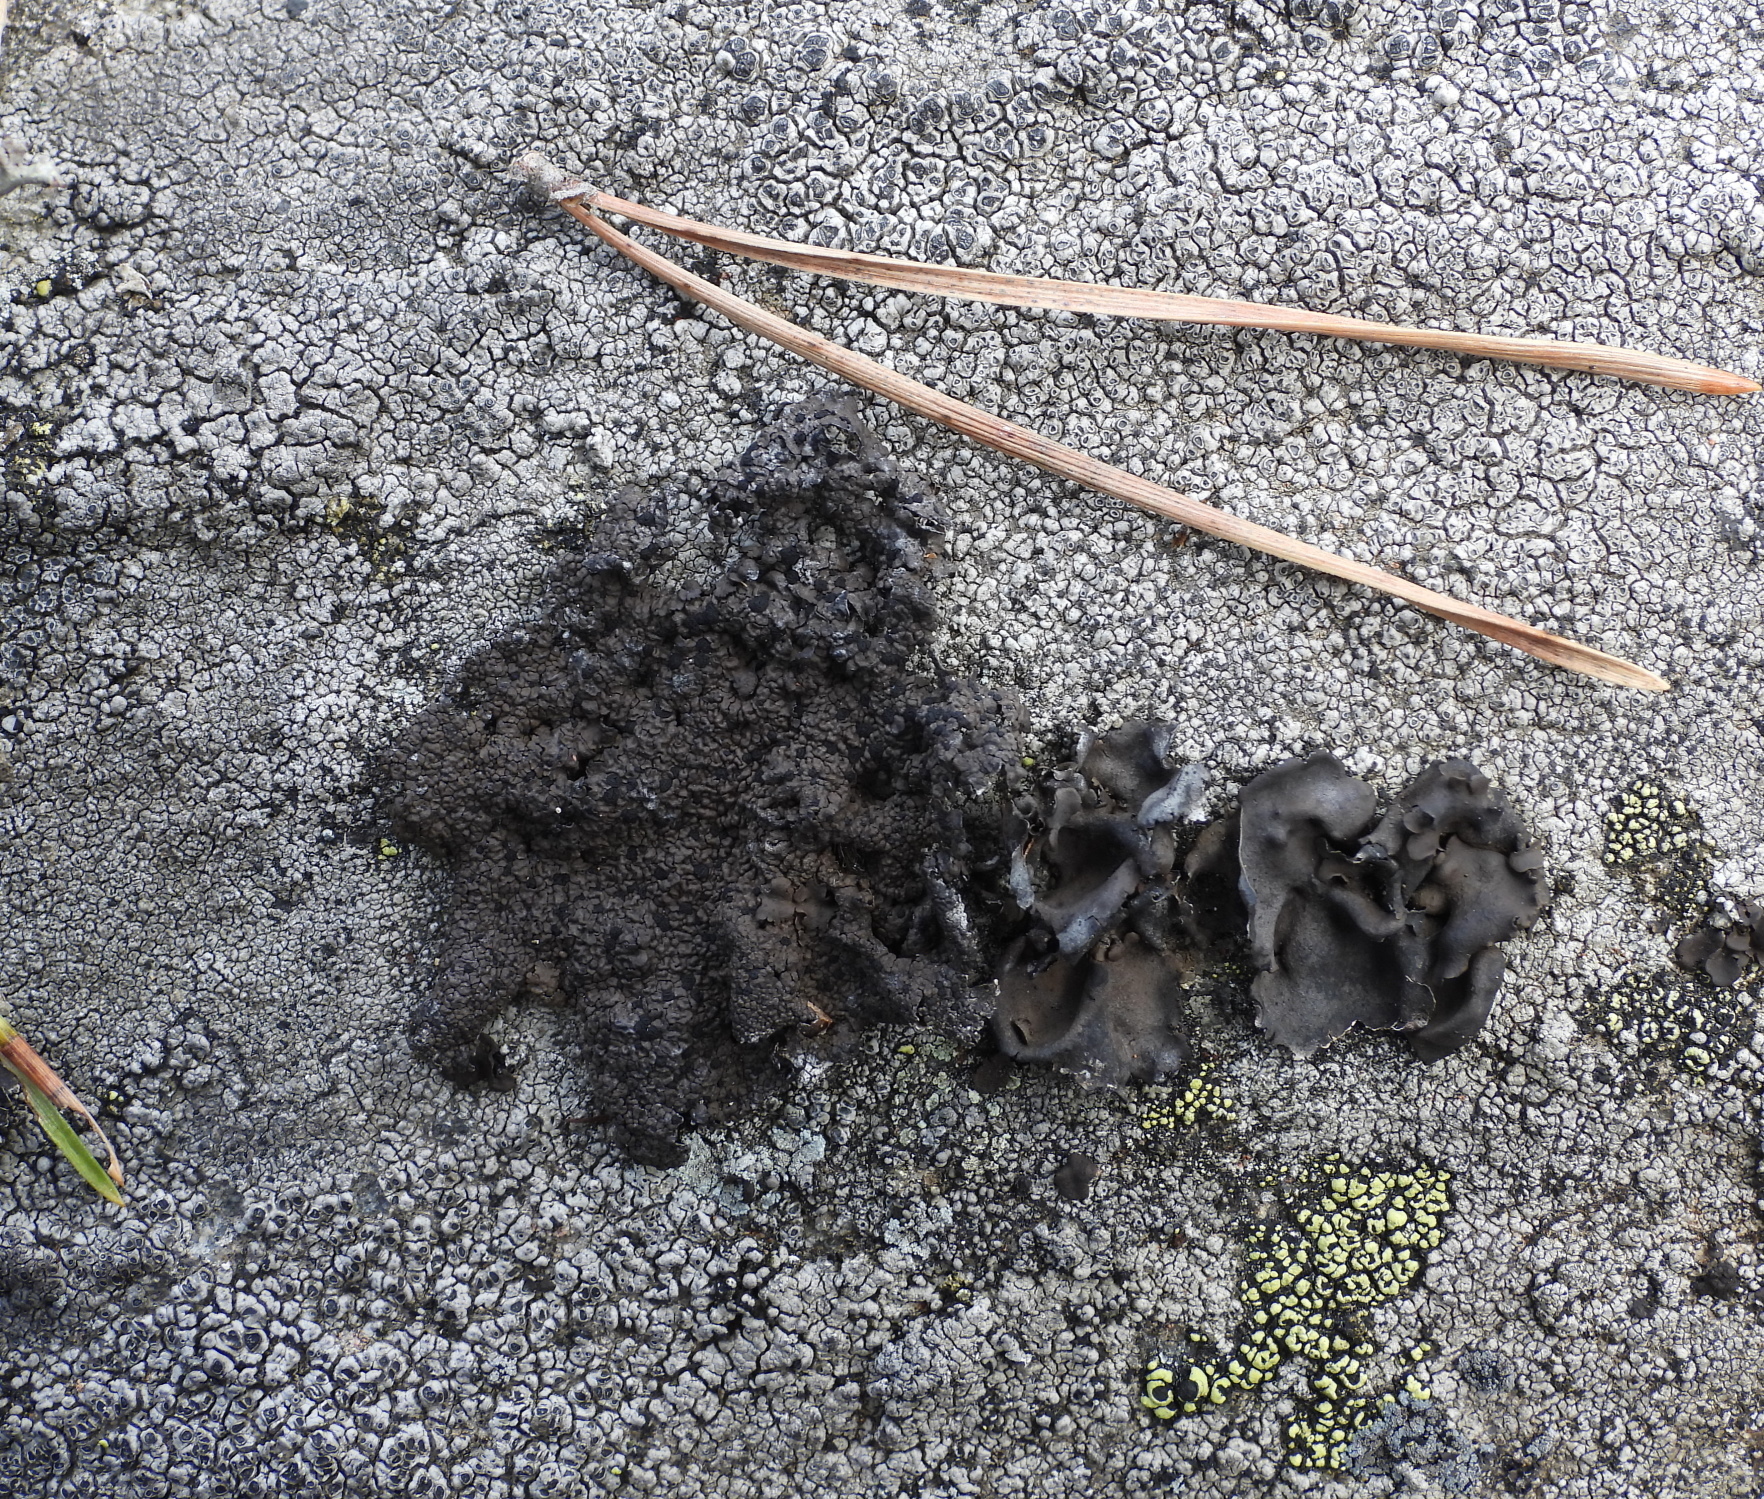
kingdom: Fungi
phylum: Ascomycota
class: Lecanoromycetes
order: Umbilicariales
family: Umbilicariaceae
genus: Umbilicaria
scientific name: Umbilicaria hyperborea
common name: Blistered rock tripe
